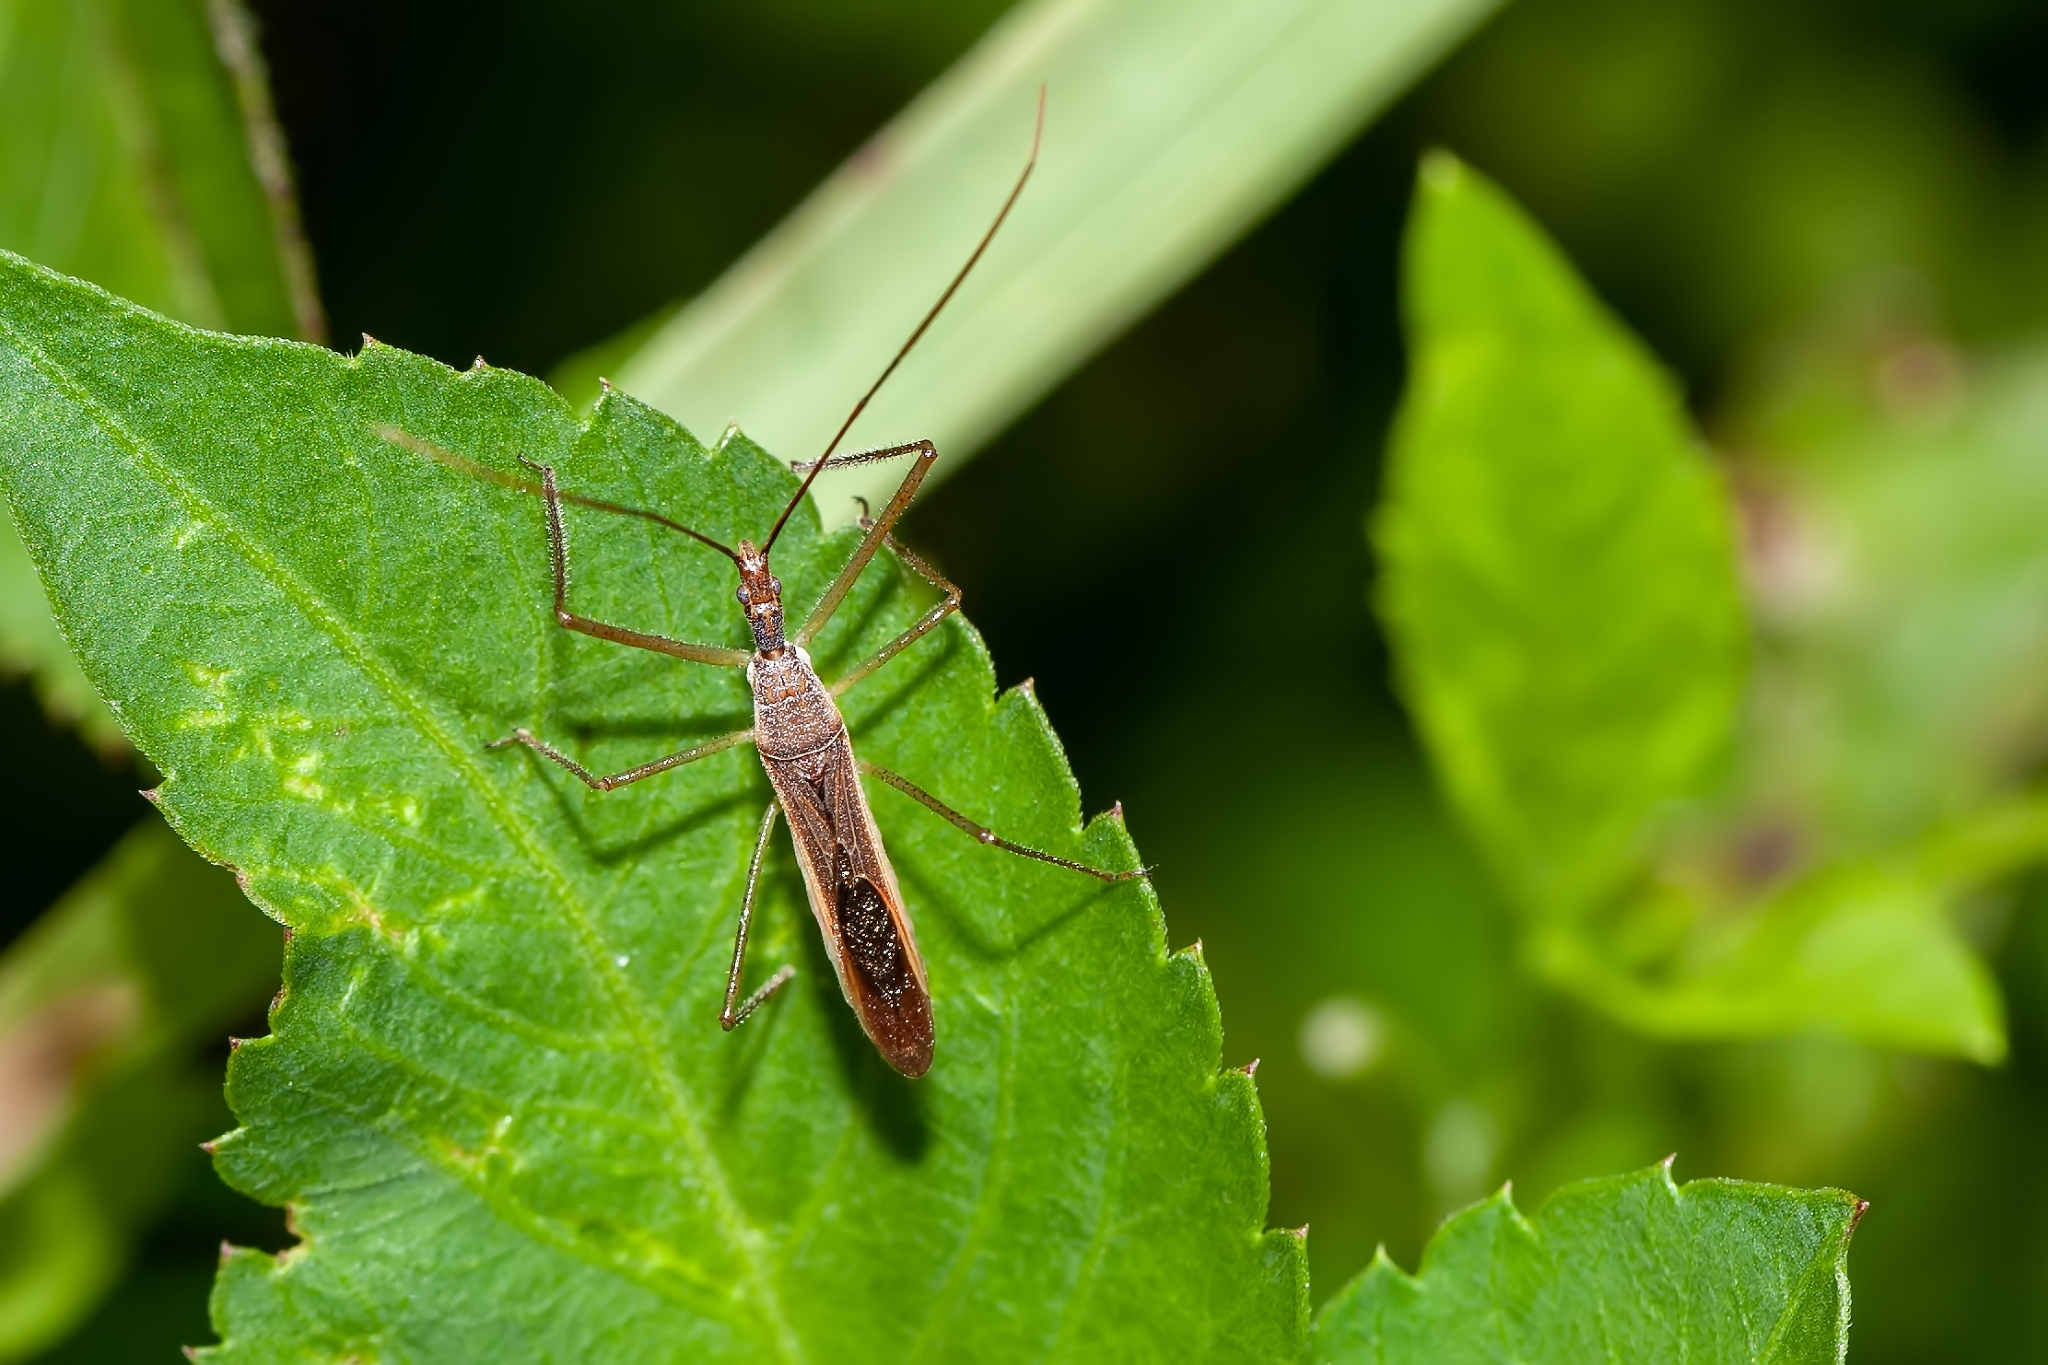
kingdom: Animalia
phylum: Arthropoda
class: Insecta
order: Hemiptera
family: Reduviidae
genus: Zelus
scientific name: Zelus cervicalis
